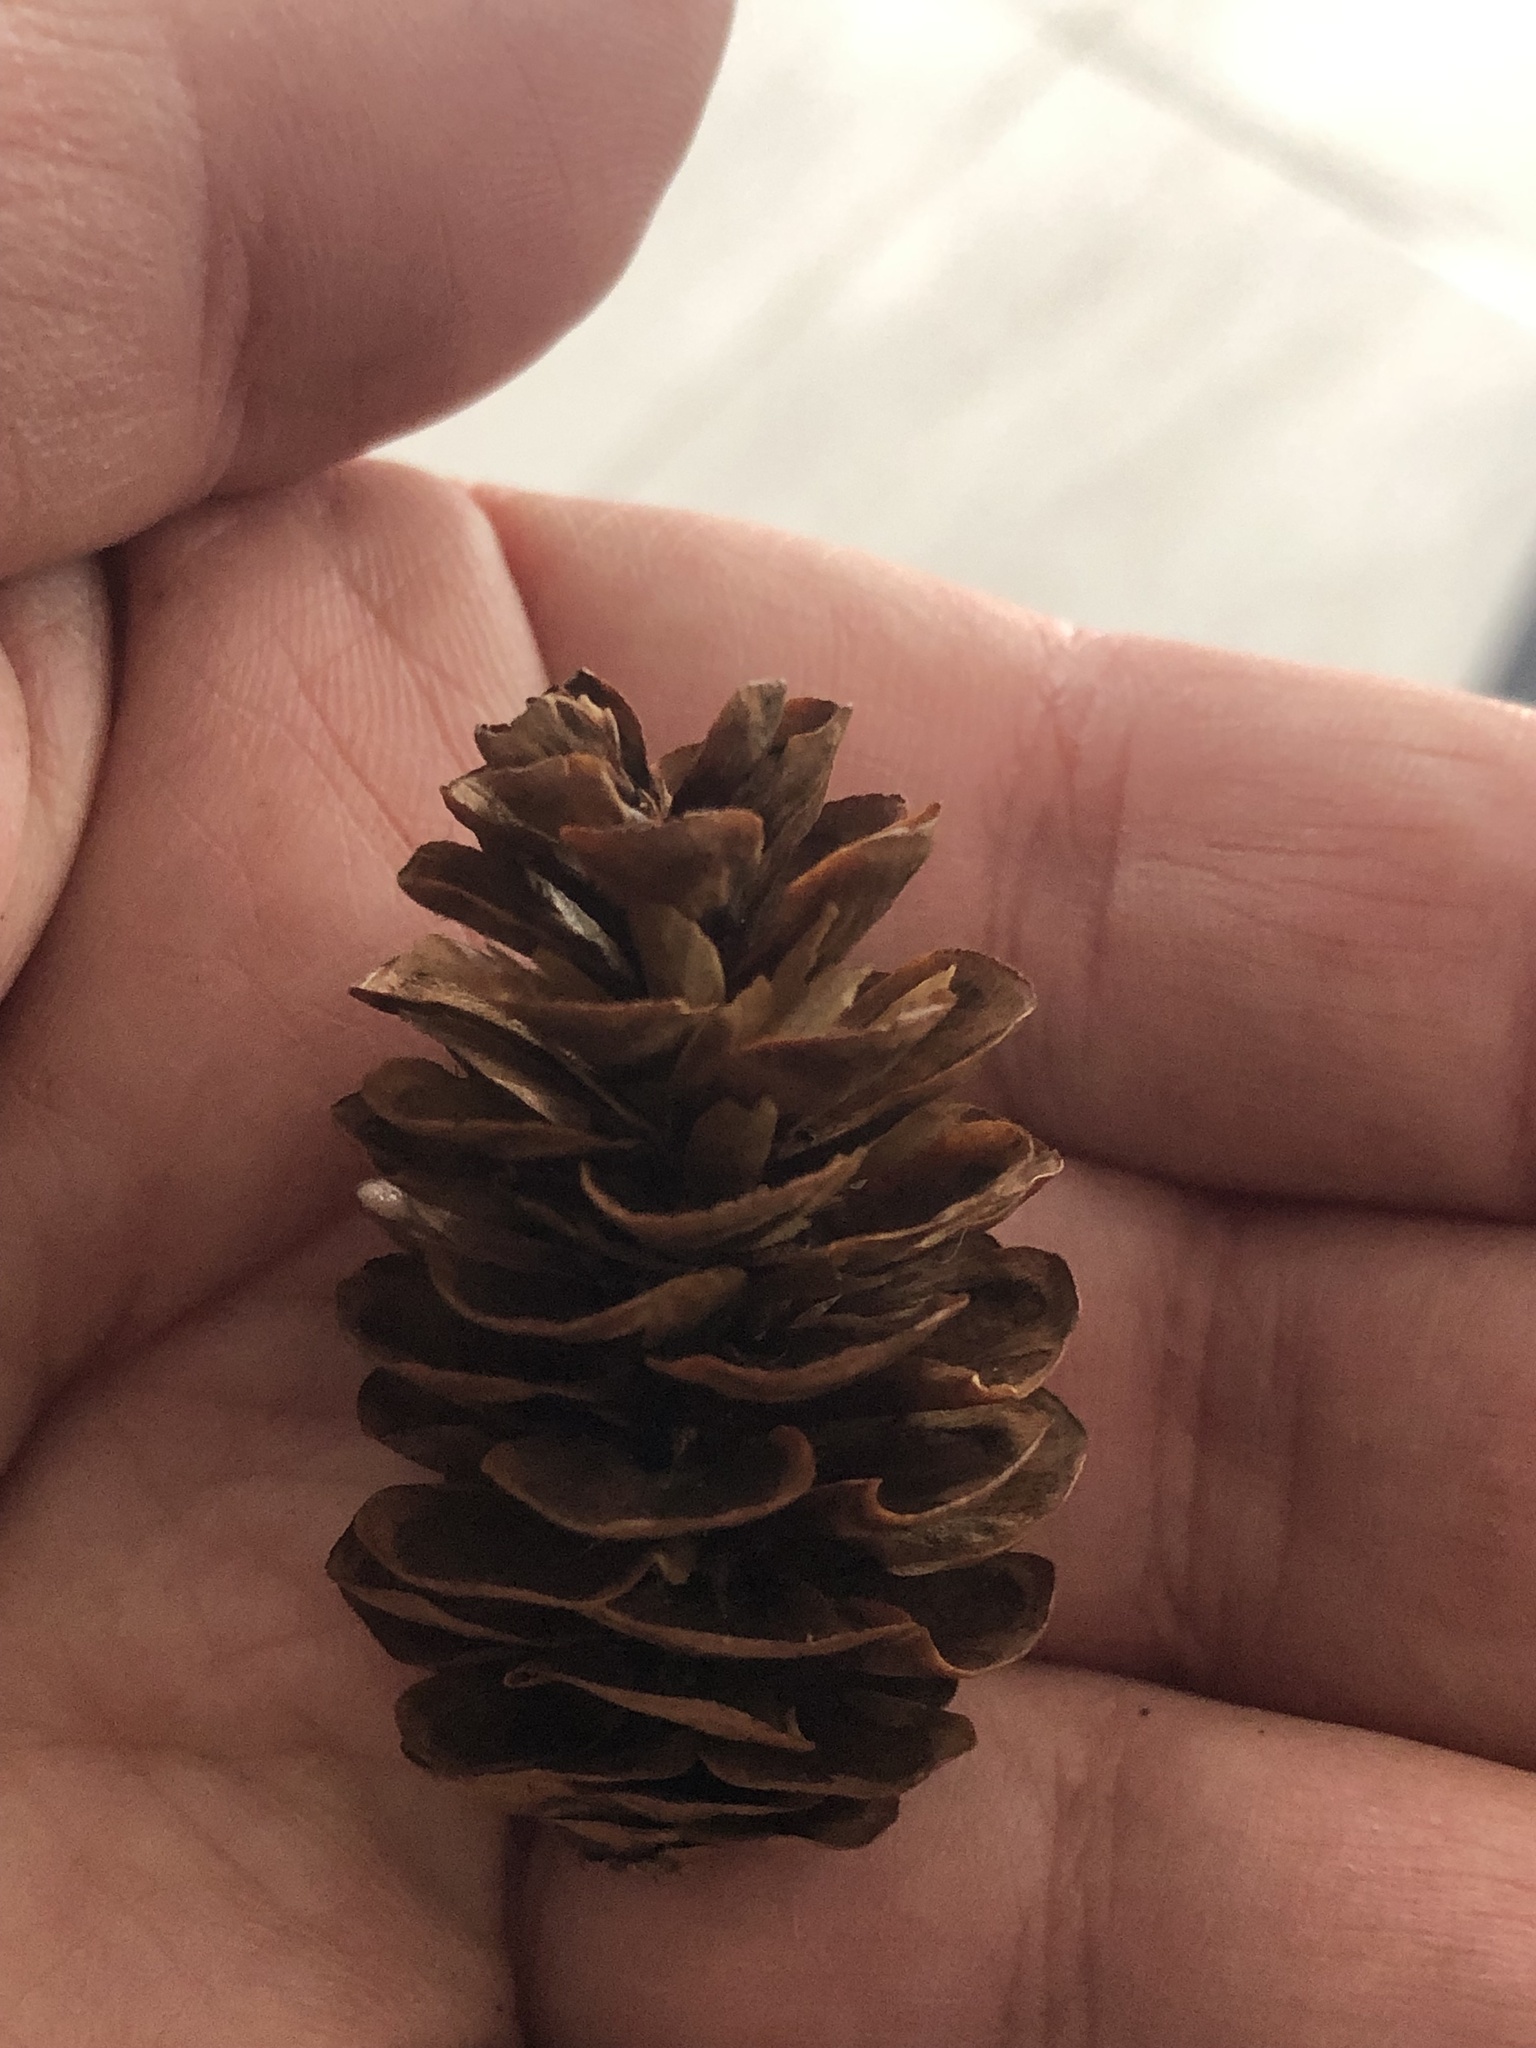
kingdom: Plantae
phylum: Tracheophyta
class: Pinopsida
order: Pinales
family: Pinaceae
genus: Picea
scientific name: Picea glauca
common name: White spruce
